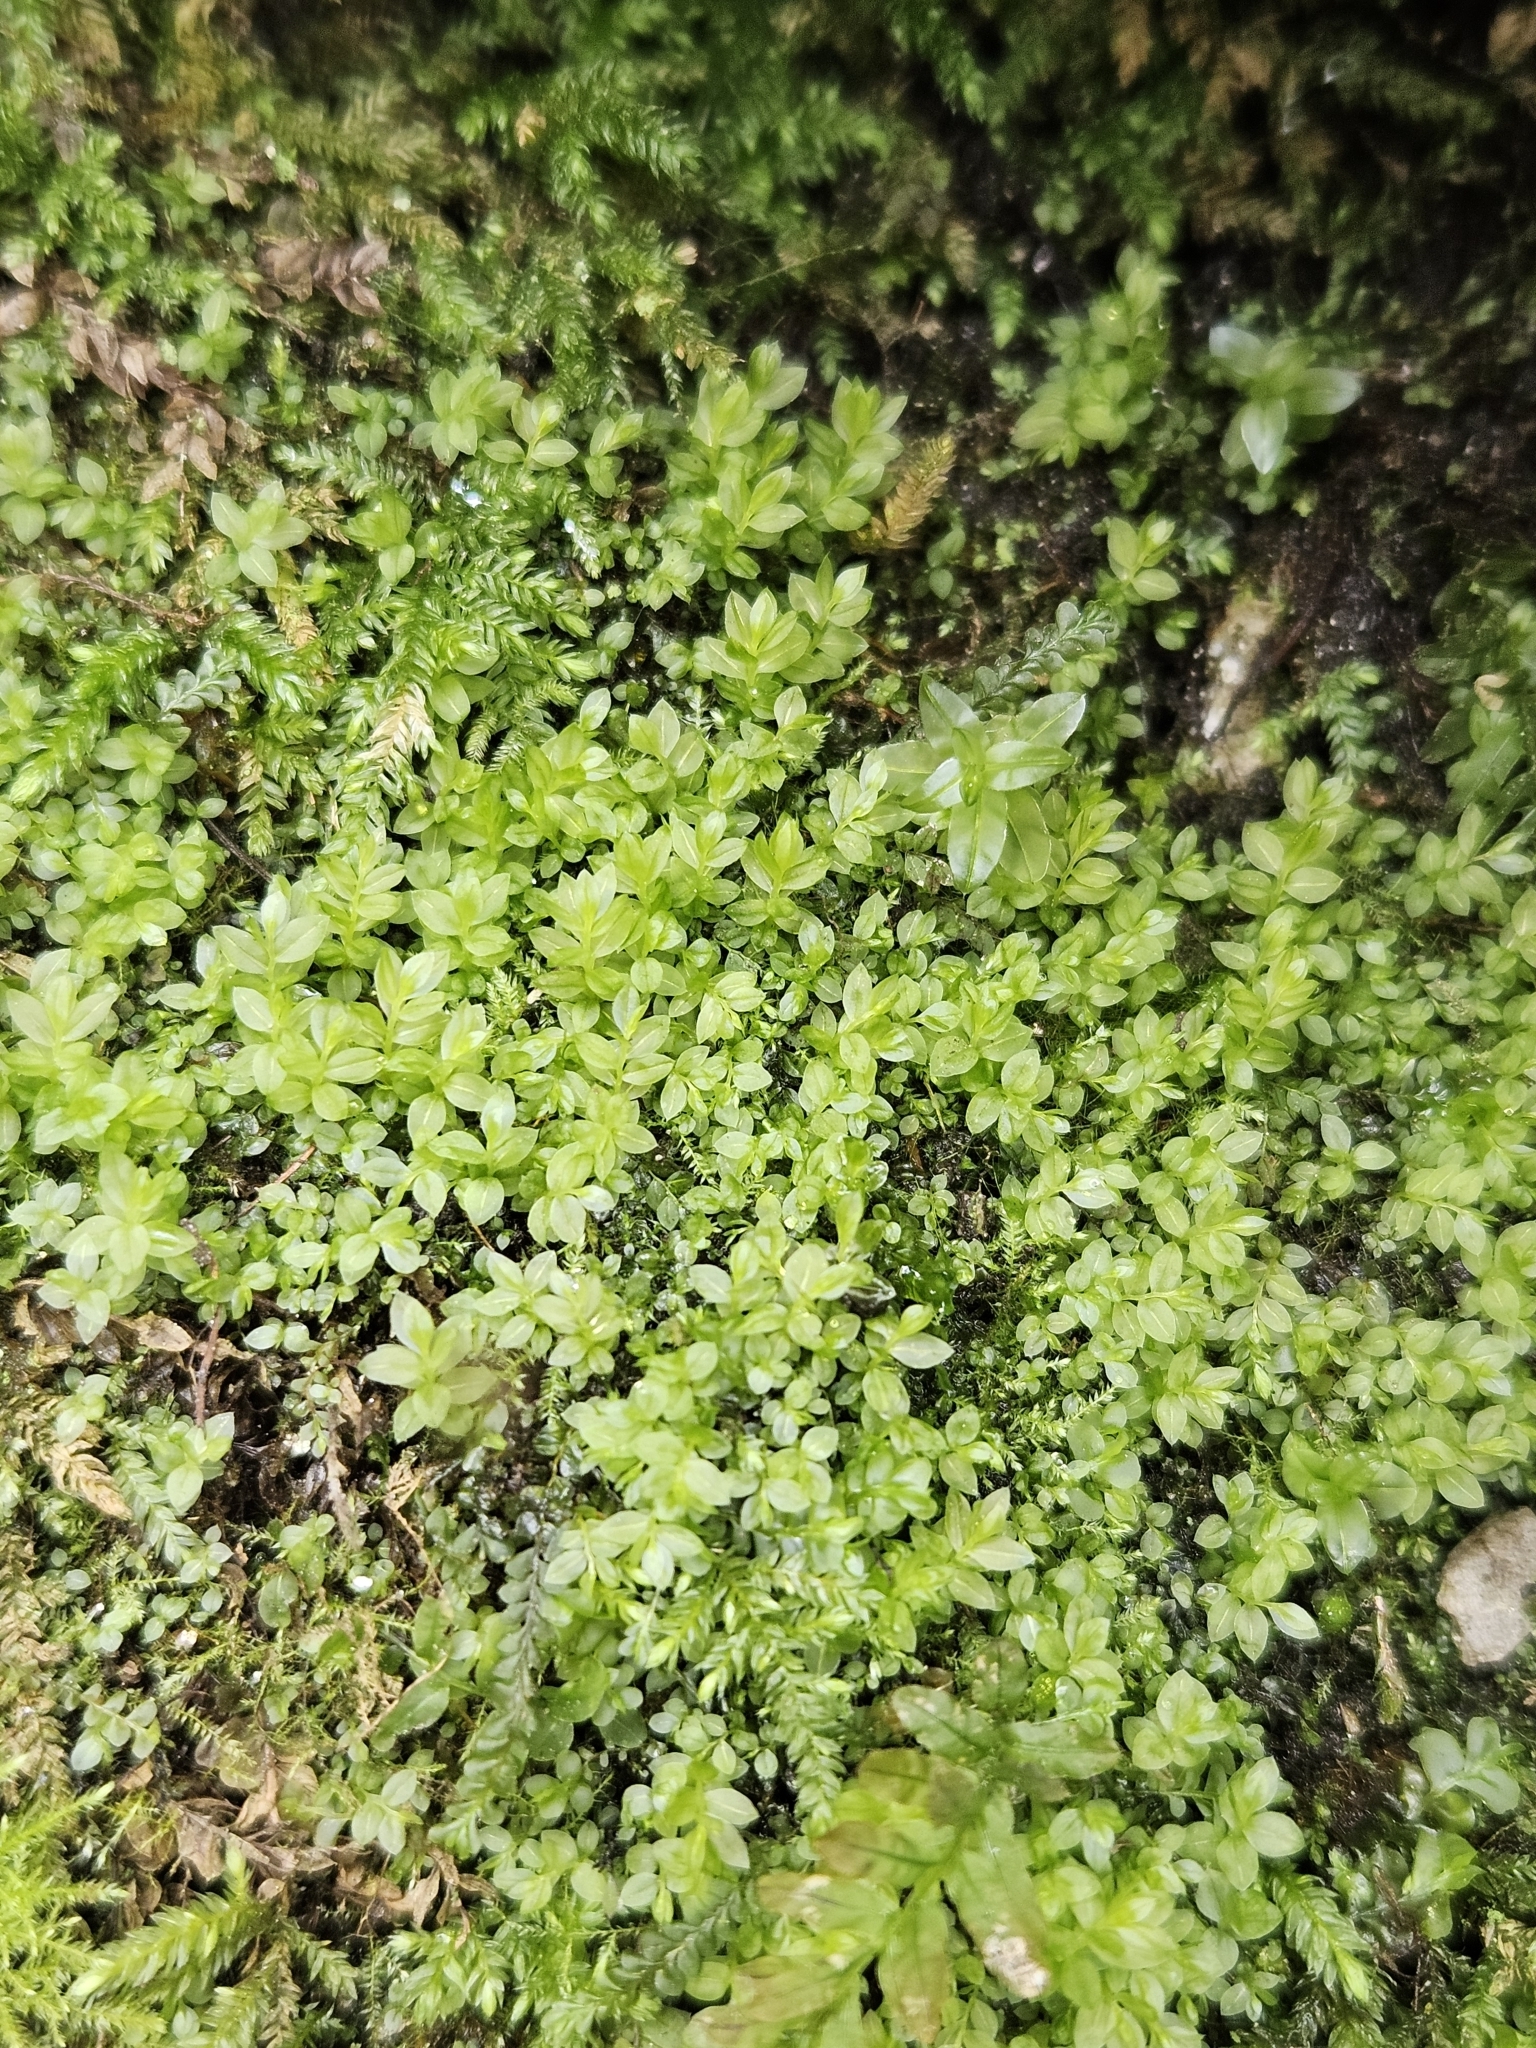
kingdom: Plantae
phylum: Bryophyta
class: Bryopsida
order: Bryales
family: Mniaceae
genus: Mnium
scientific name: Mnium stellare
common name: Star leafy moss
